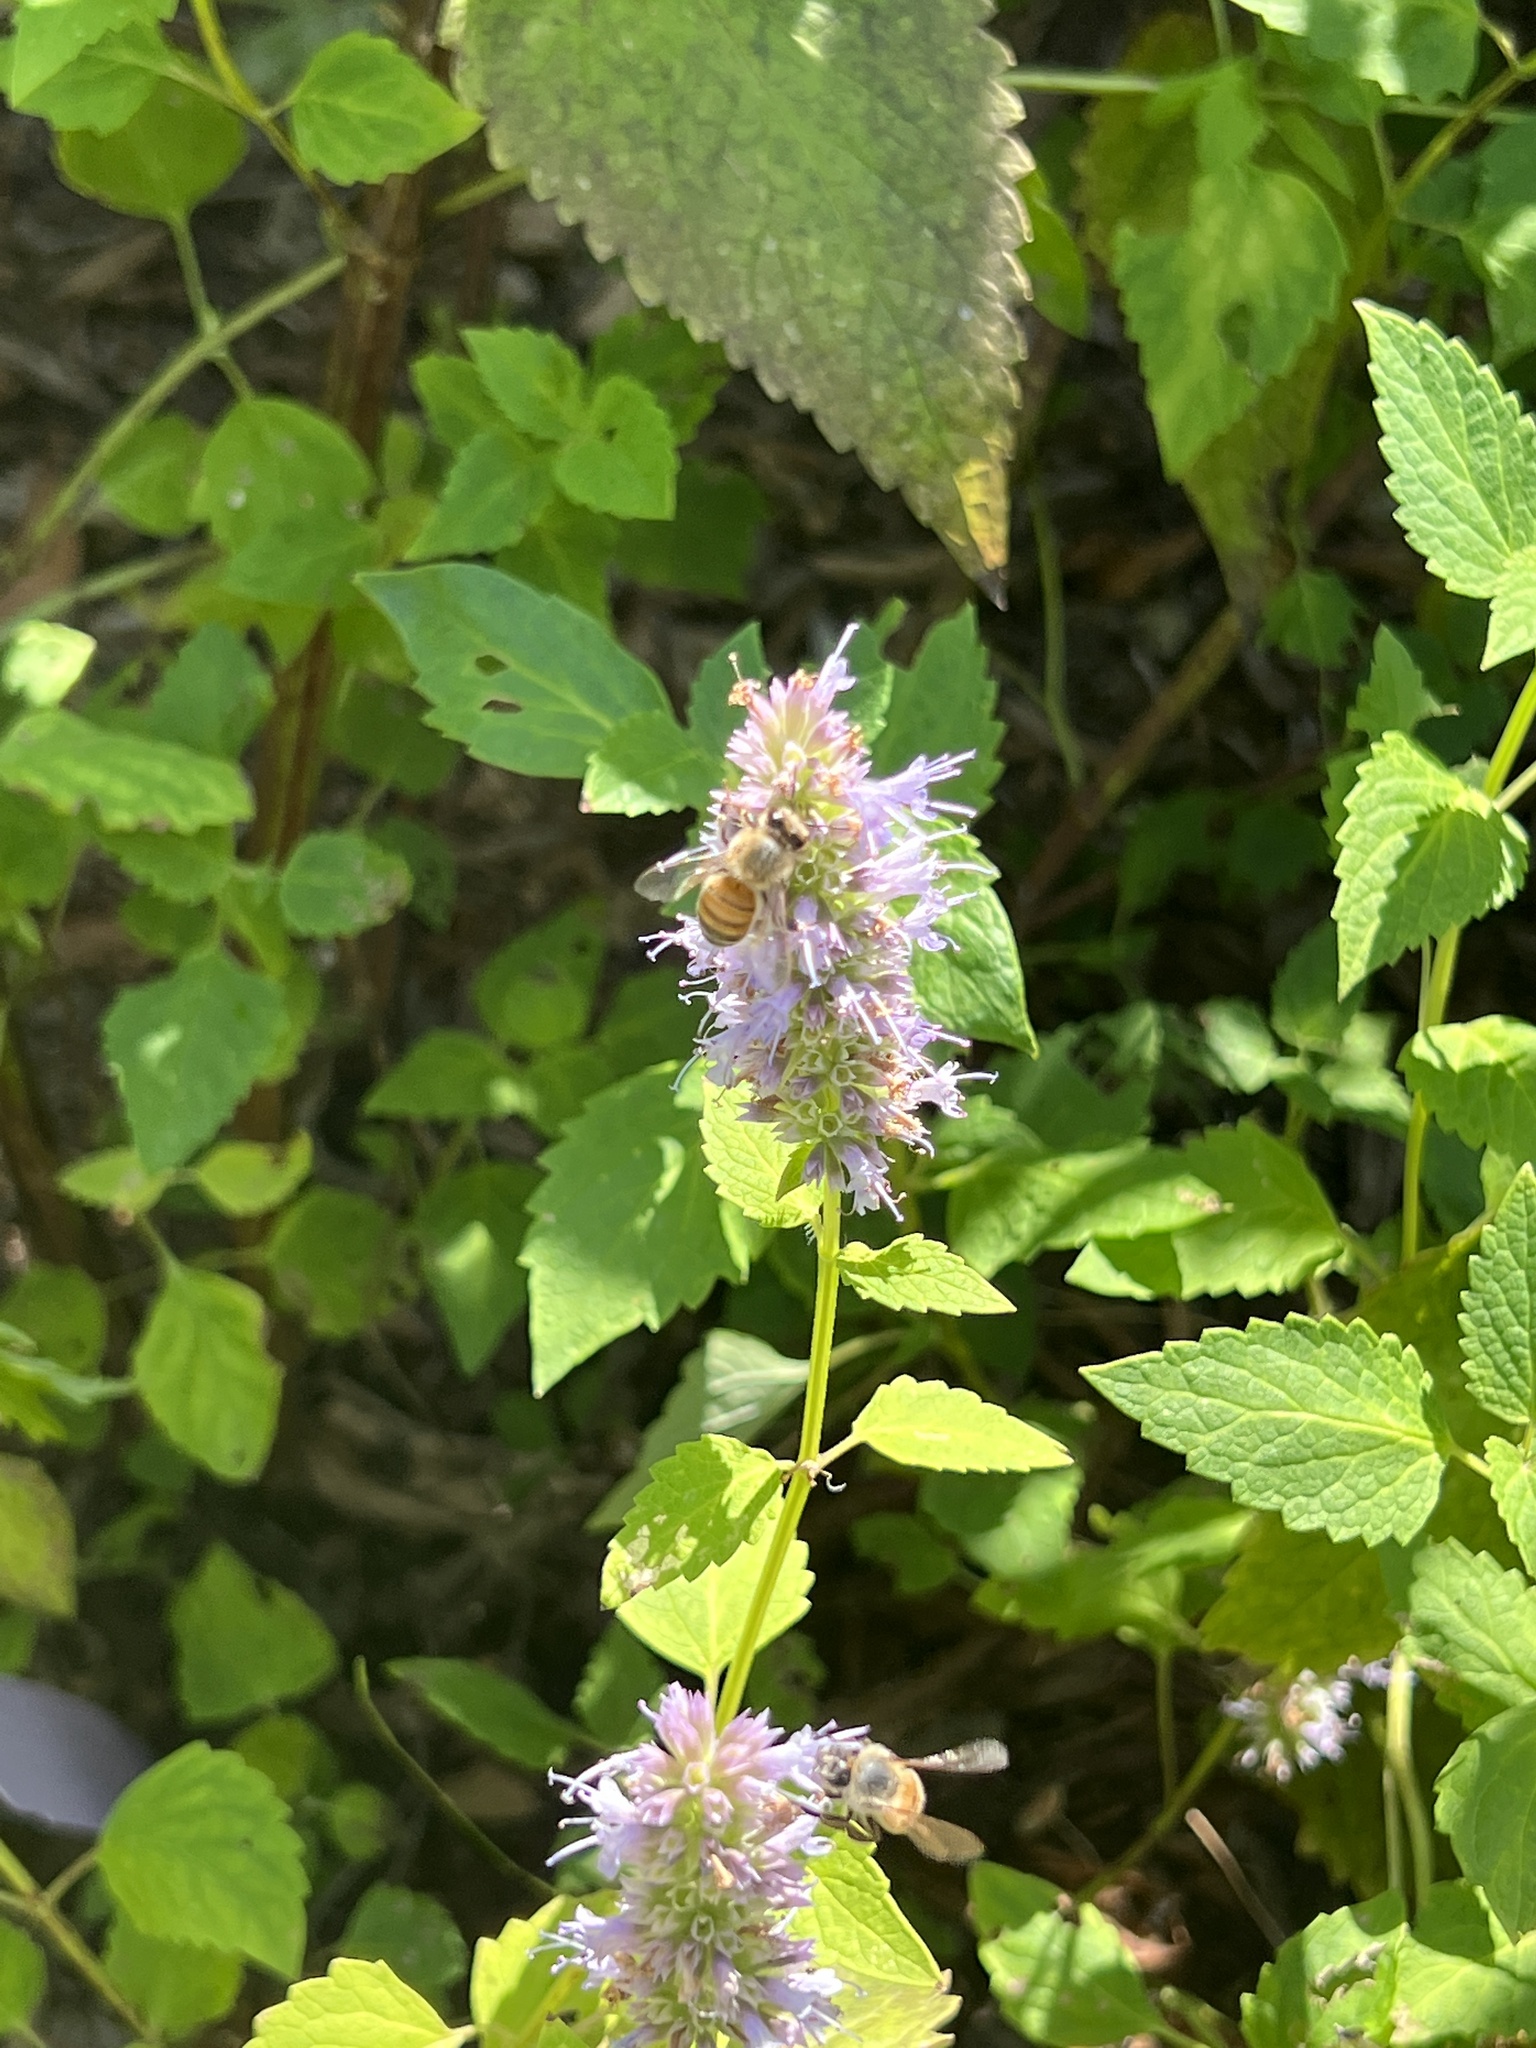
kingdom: Animalia
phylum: Arthropoda
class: Insecta
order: Hymenoptera
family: Apidae
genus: Apis
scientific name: Apis mellifera
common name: Honey bee
